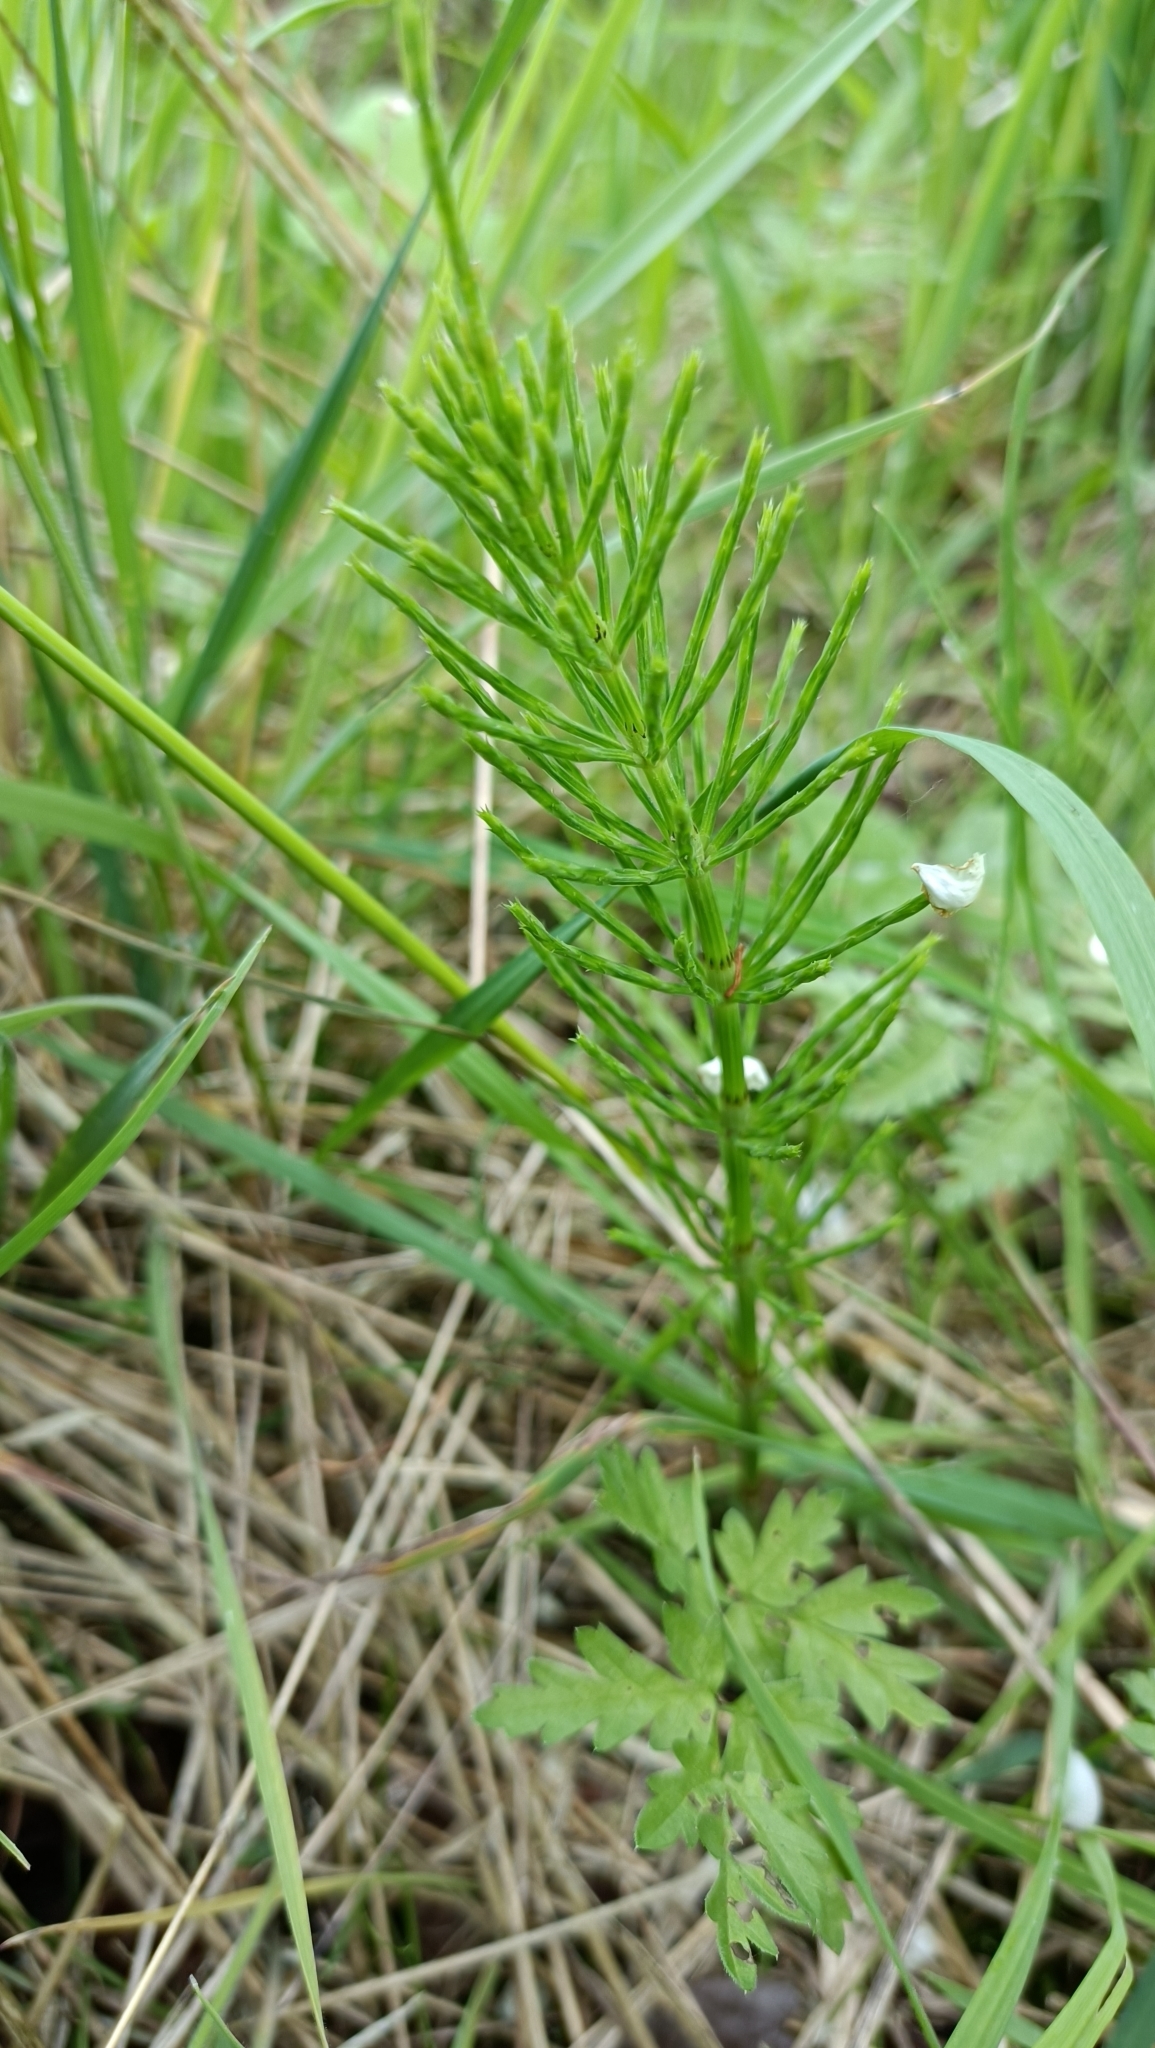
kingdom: Plantae
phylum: Tracheophyta
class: Polypodiopsida
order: Equisetales
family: Equisetaceae
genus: Equisetum
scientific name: Equisetum arvense
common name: Field horsetail
